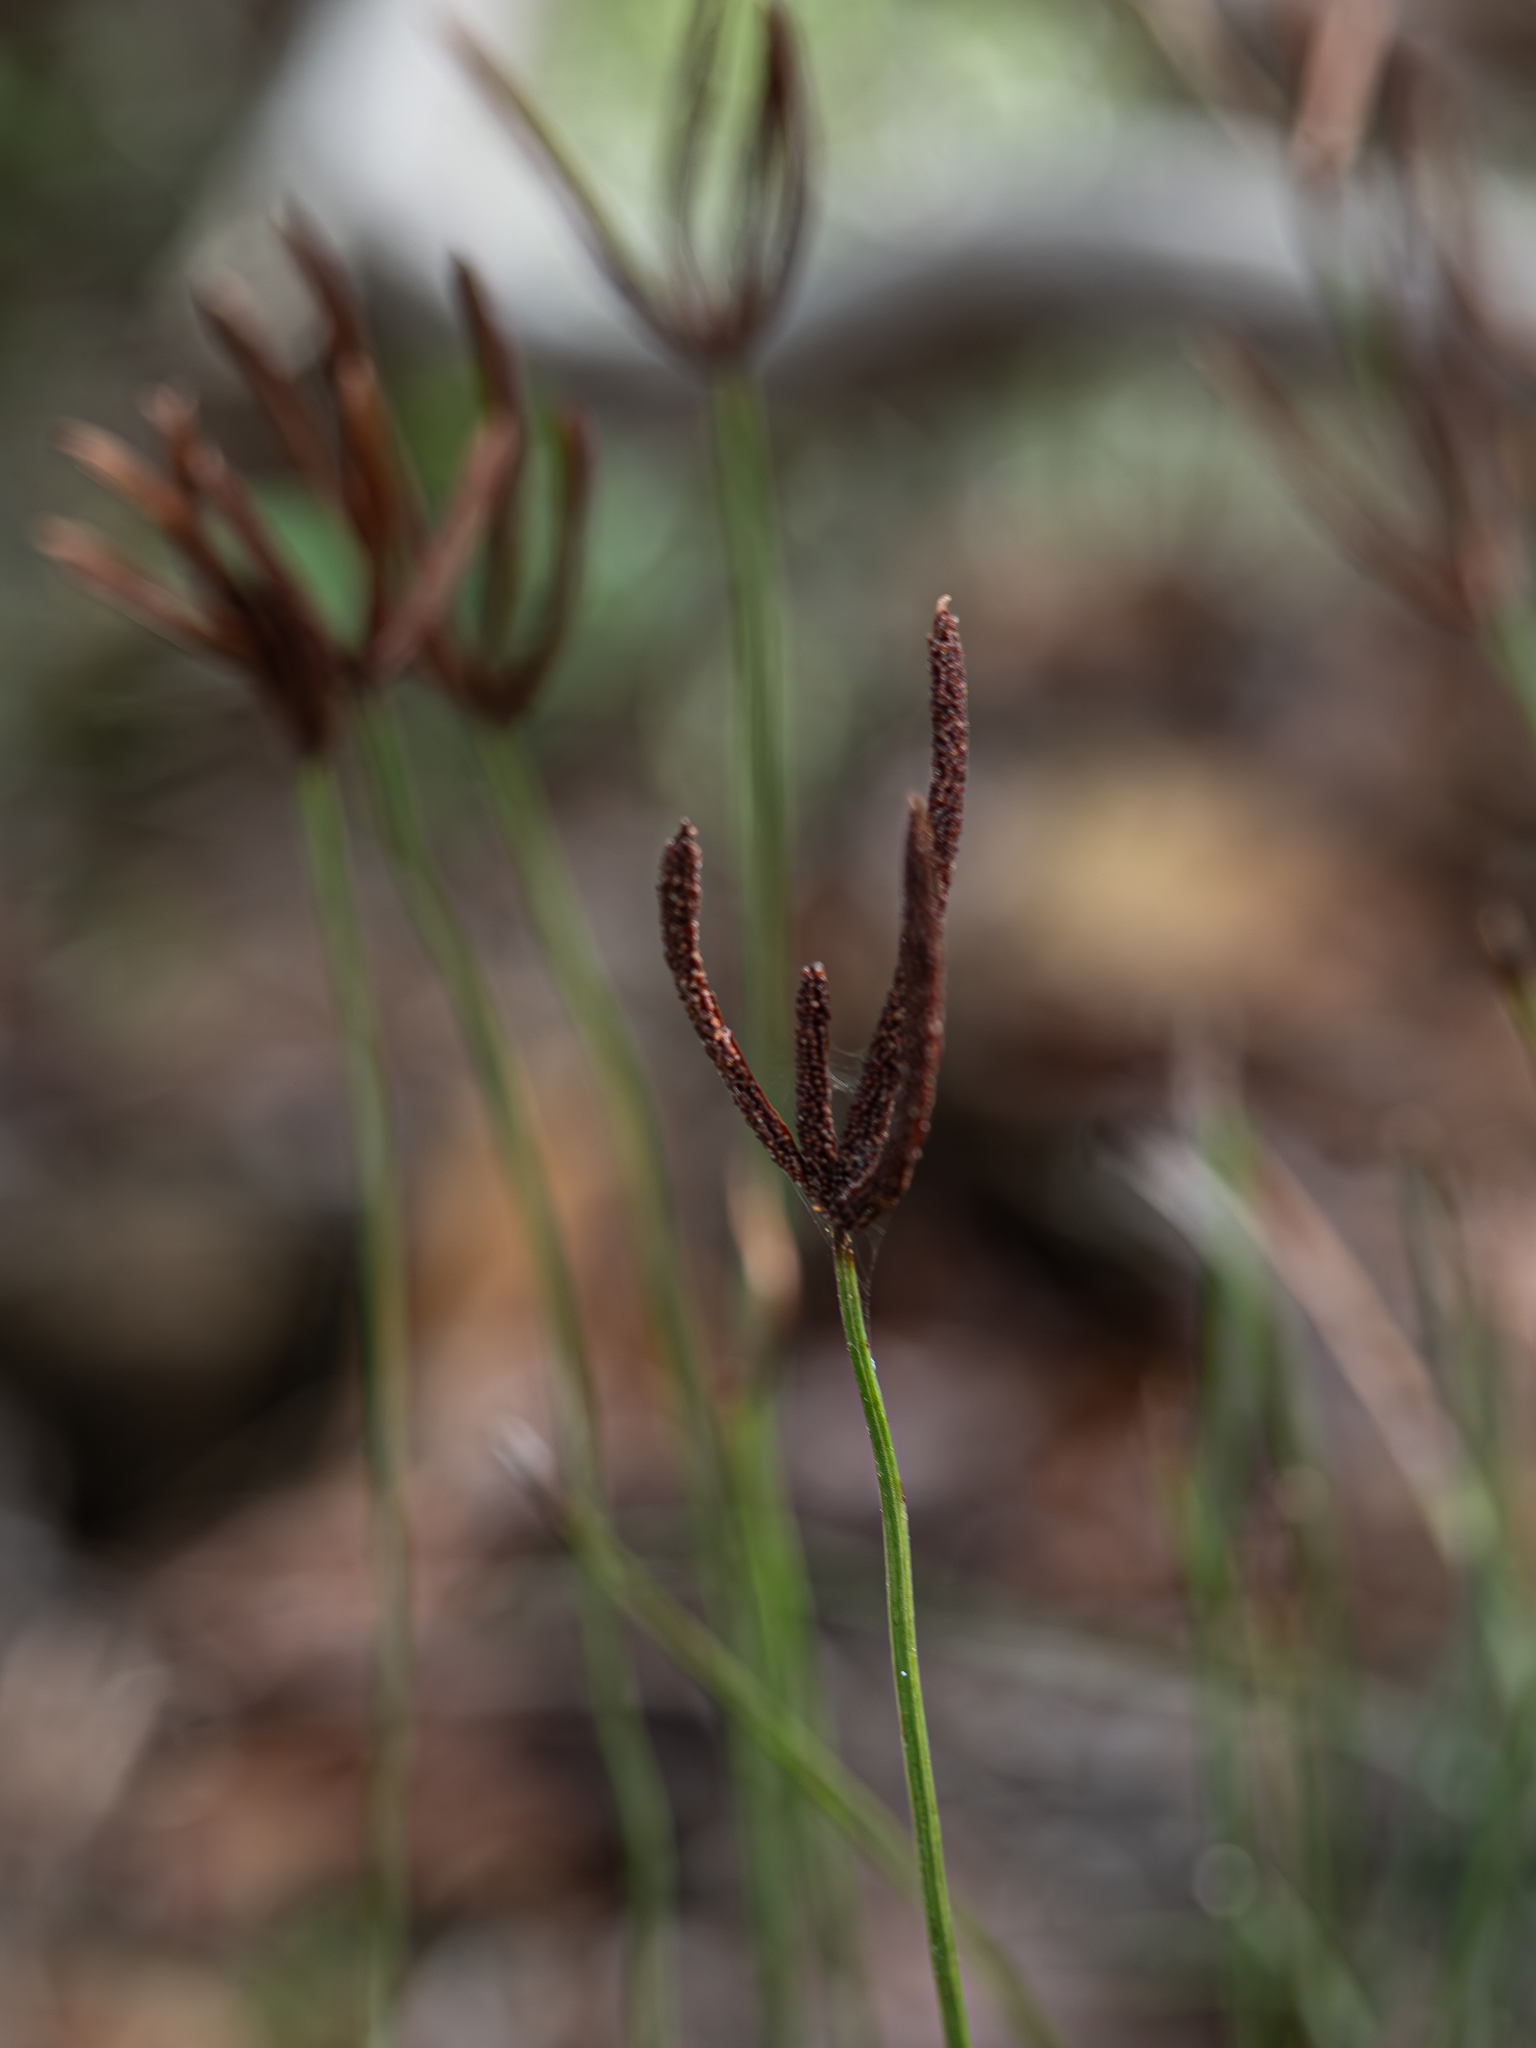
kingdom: Plantae
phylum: Tracheophyta
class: Polypodiopsida
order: Schizaeales
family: Schizaeaceae
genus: Actinostachys
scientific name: Actinostachys laevigata
